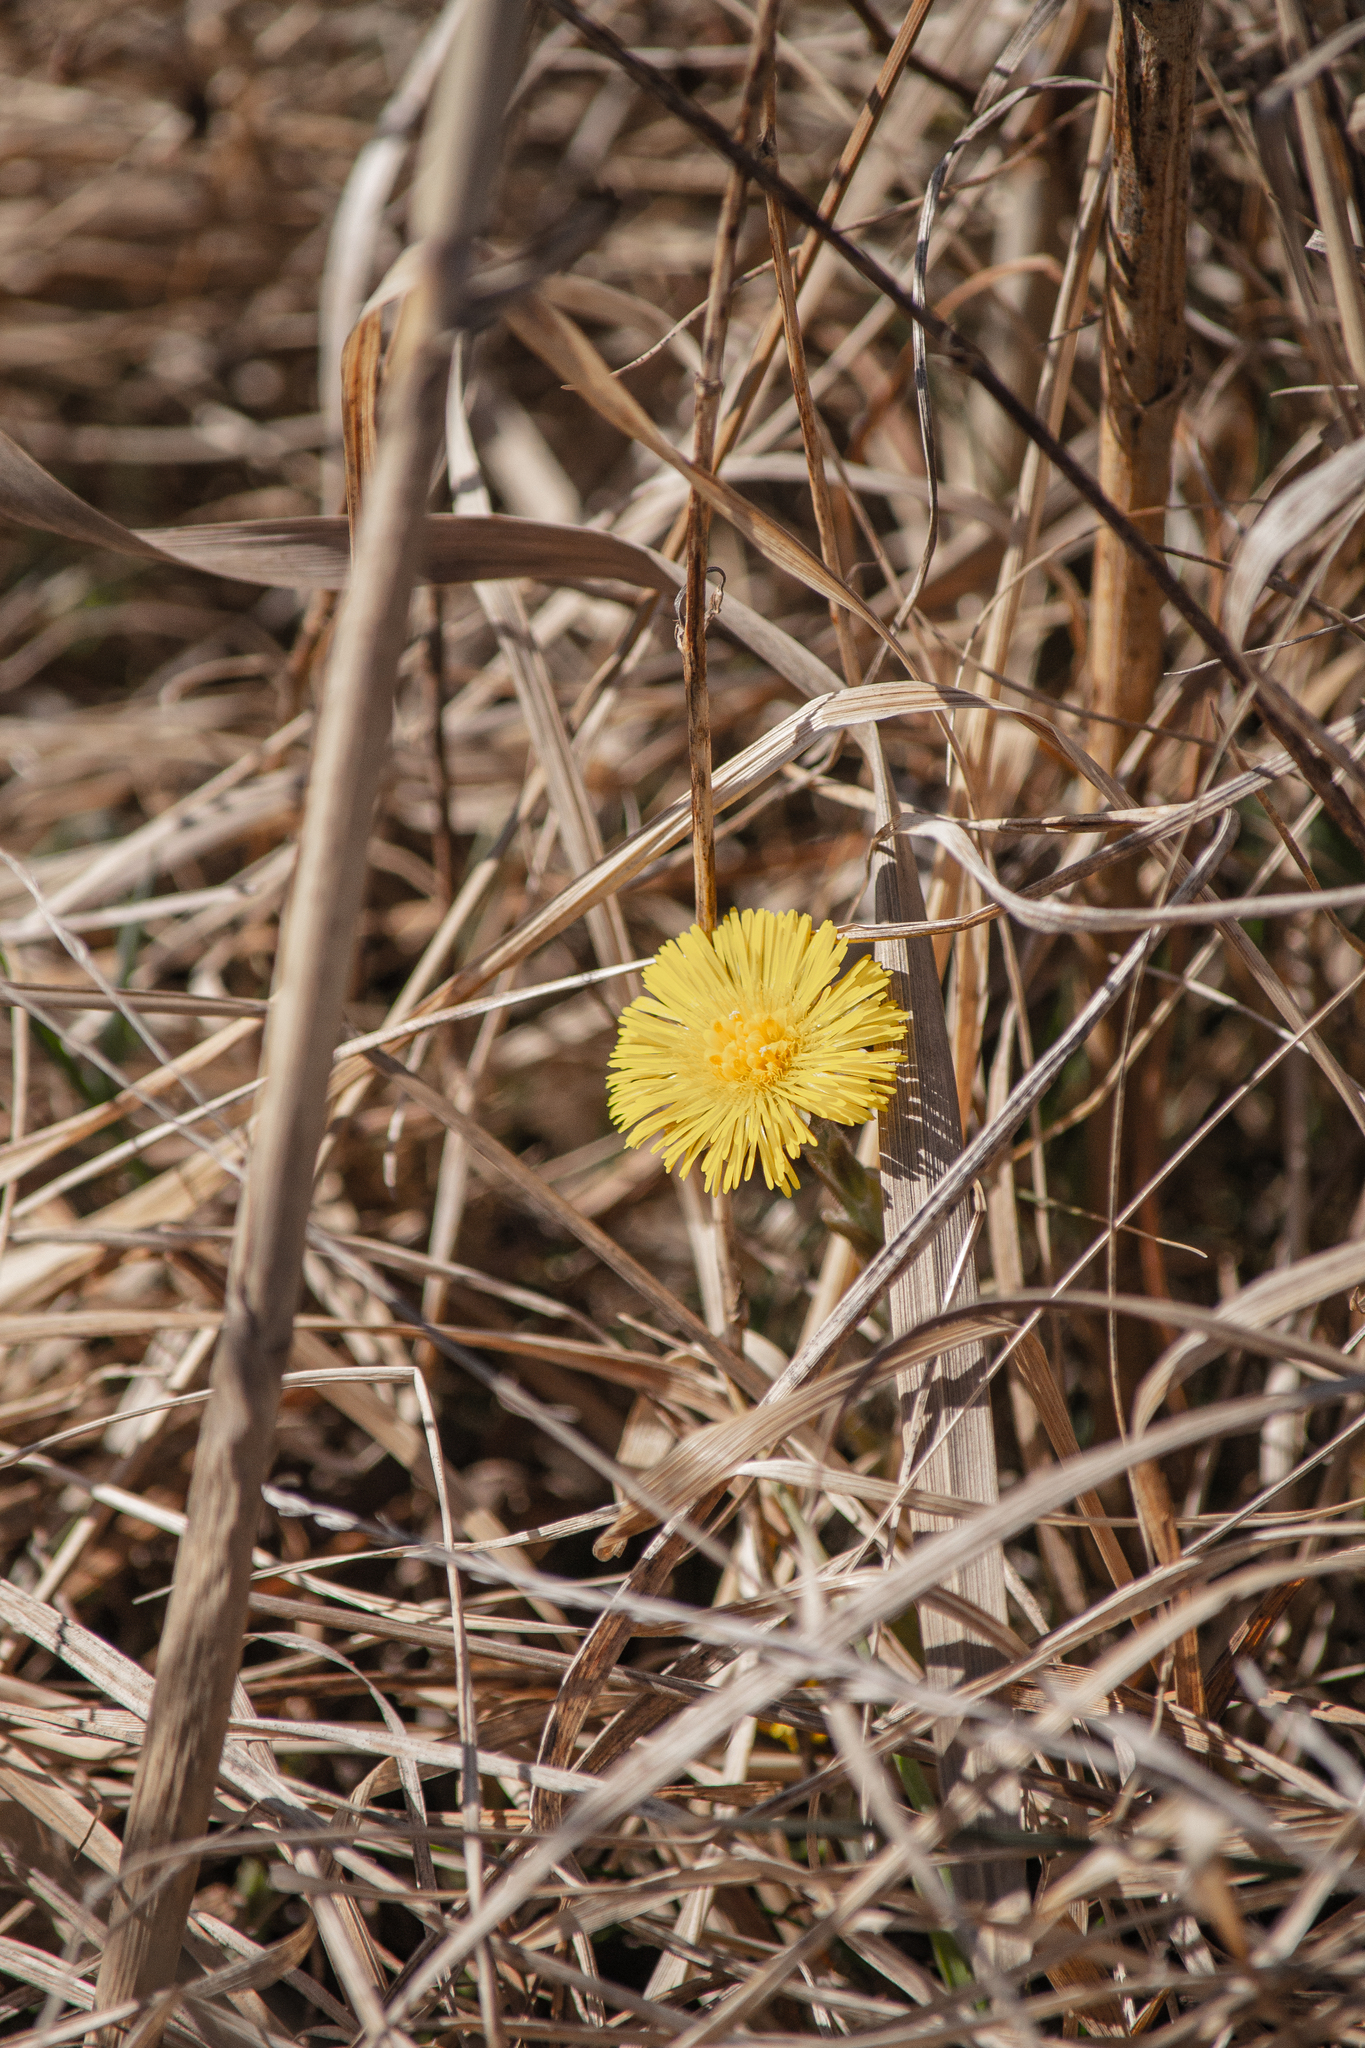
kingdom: Plantae
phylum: Tracheophyta
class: Magnoliopsida
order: Asterales
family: Asteraceae
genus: Tussilago
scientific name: Tussilago farfara
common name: Coltsfoot
